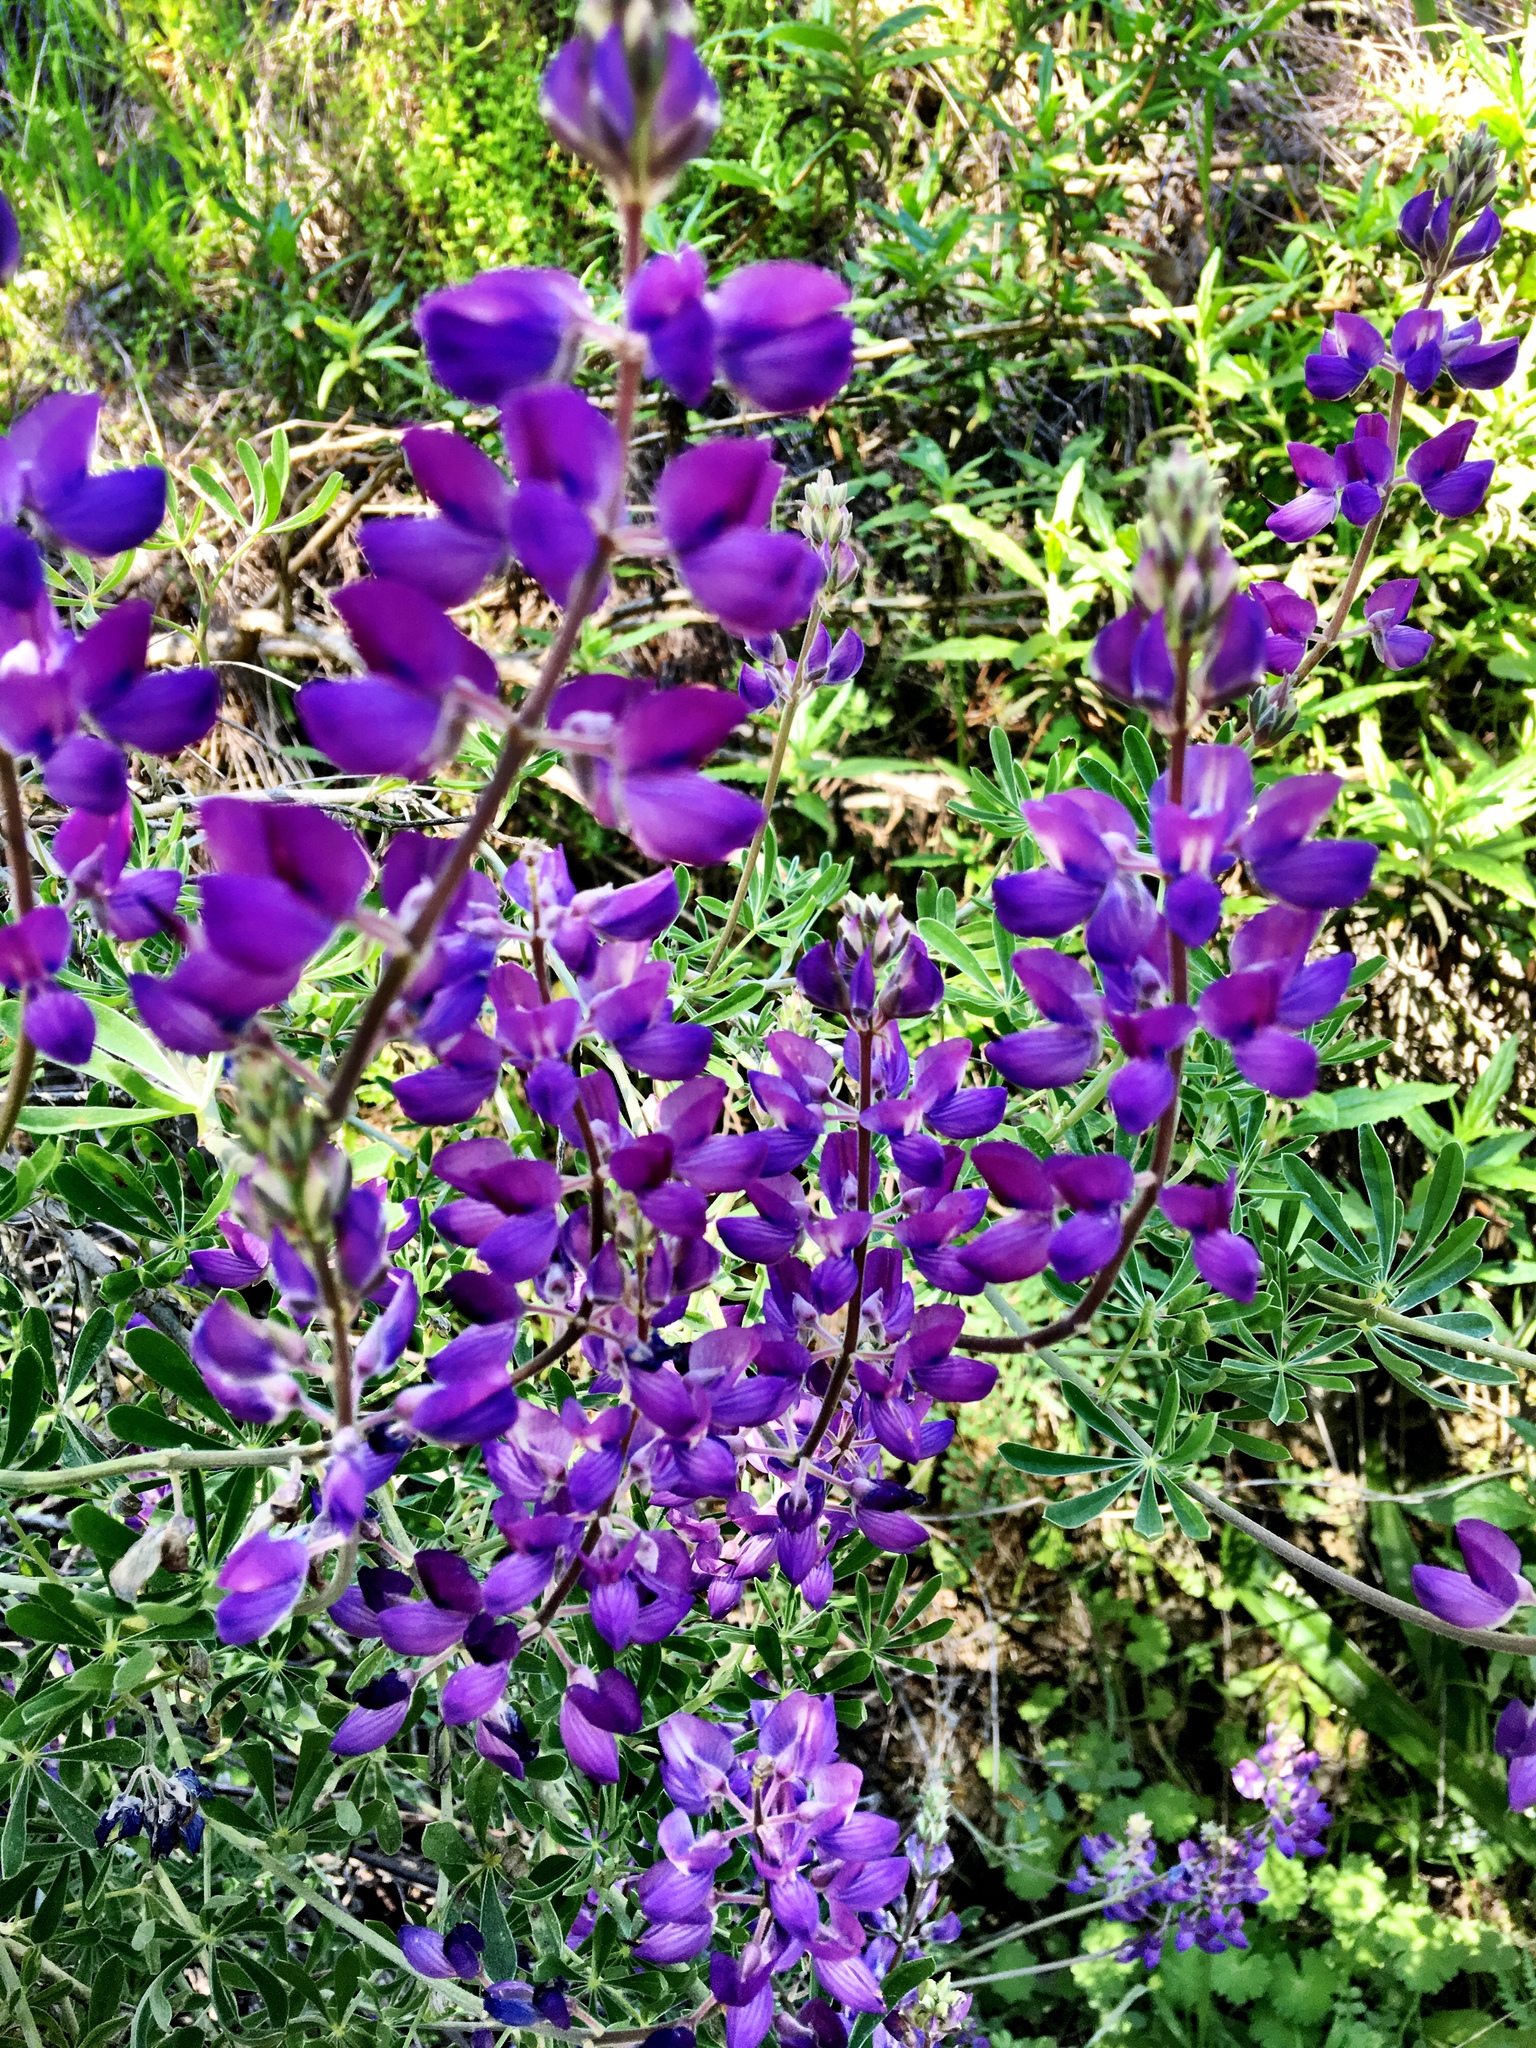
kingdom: Plantae
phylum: Tracheophyta
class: Magnoliopsida
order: Fabales
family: Fabaceae
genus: Lupinus
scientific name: Lupinus albifrons
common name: Foothill lupine
